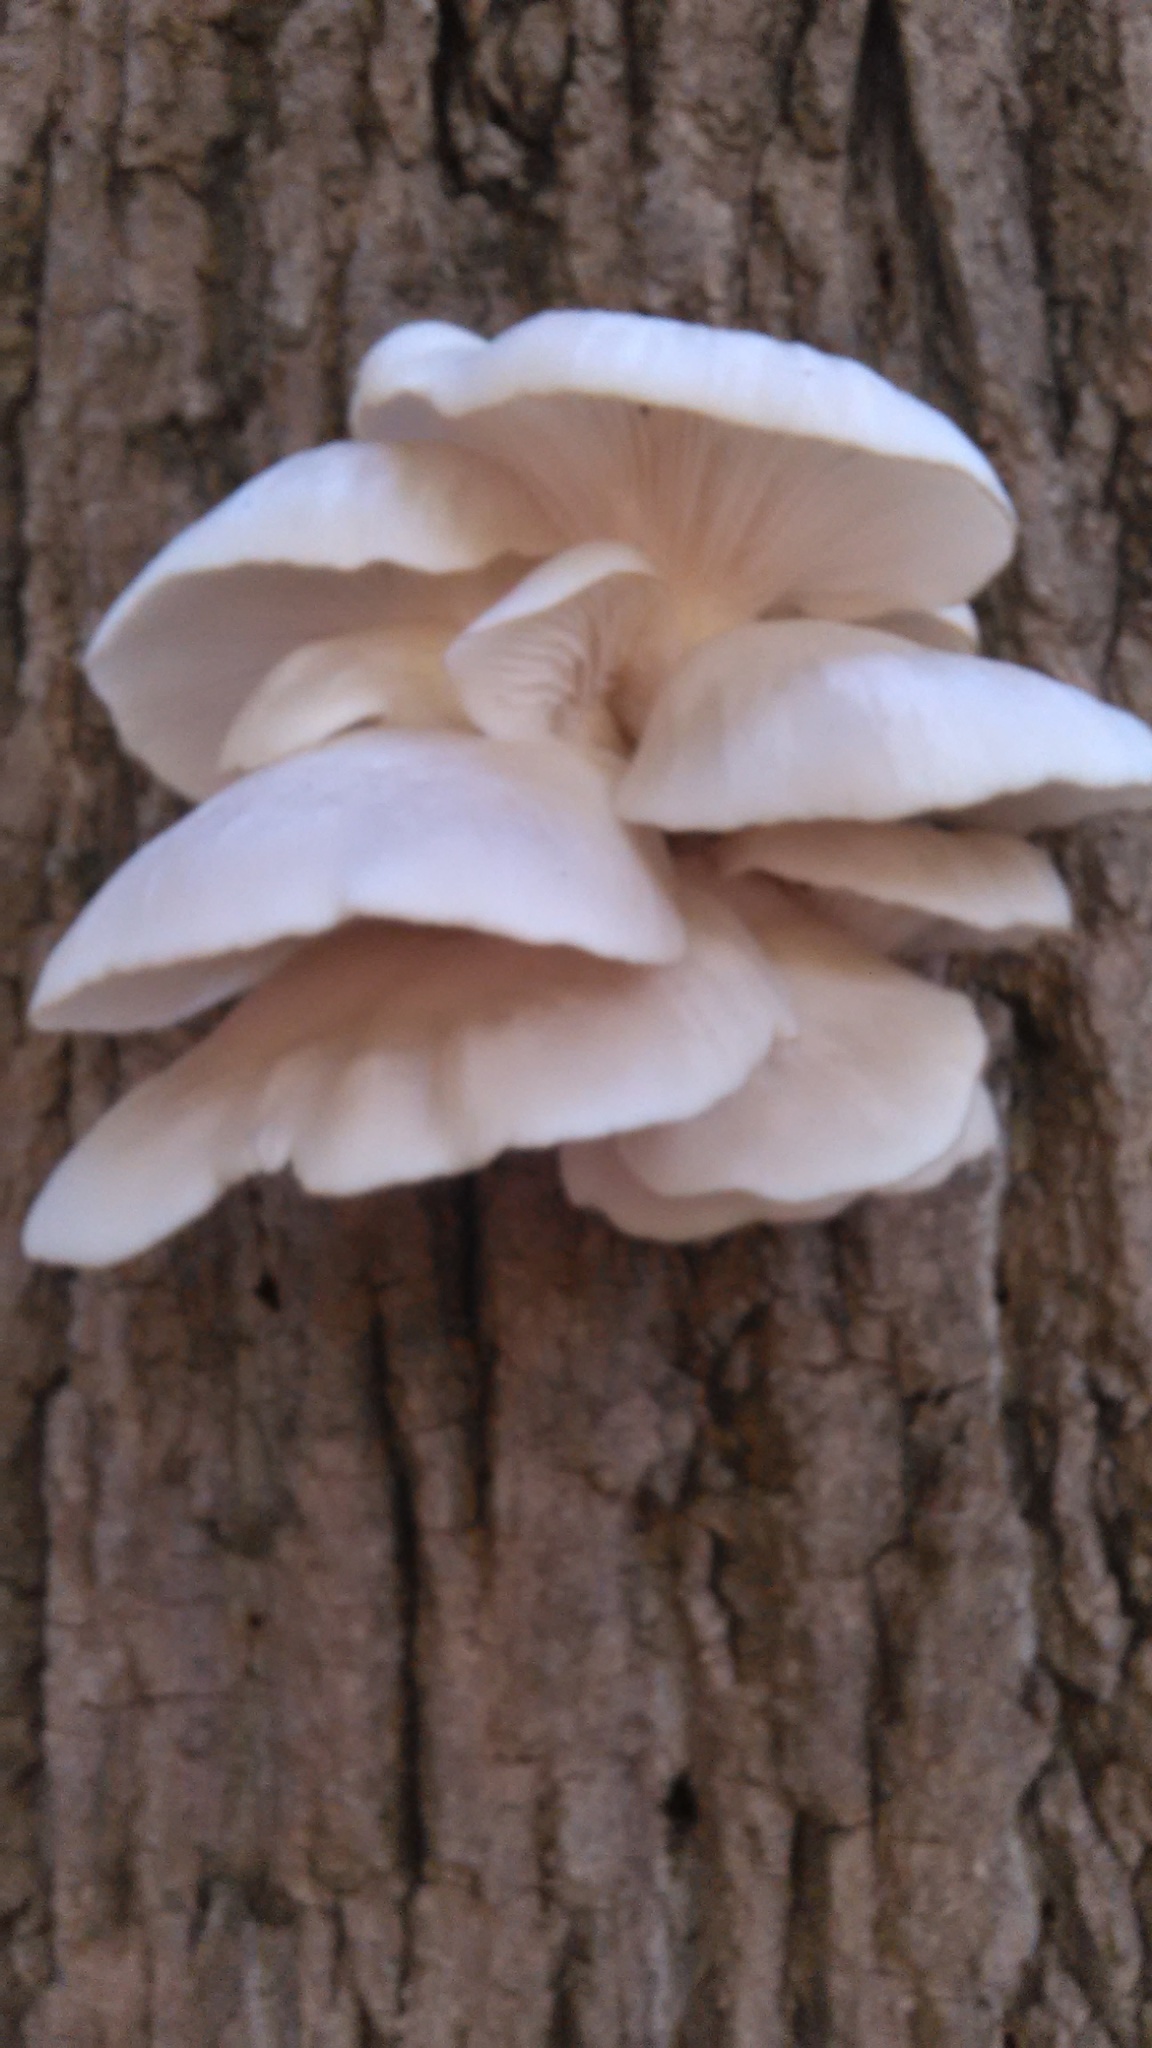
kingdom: Fungi
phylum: Basidiomycota
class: Agaricomycetes
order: Agaricales
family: Pleurotaceae
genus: Pleurotus
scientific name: Pleurotus populinus
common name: Aspen oyster mushroom
